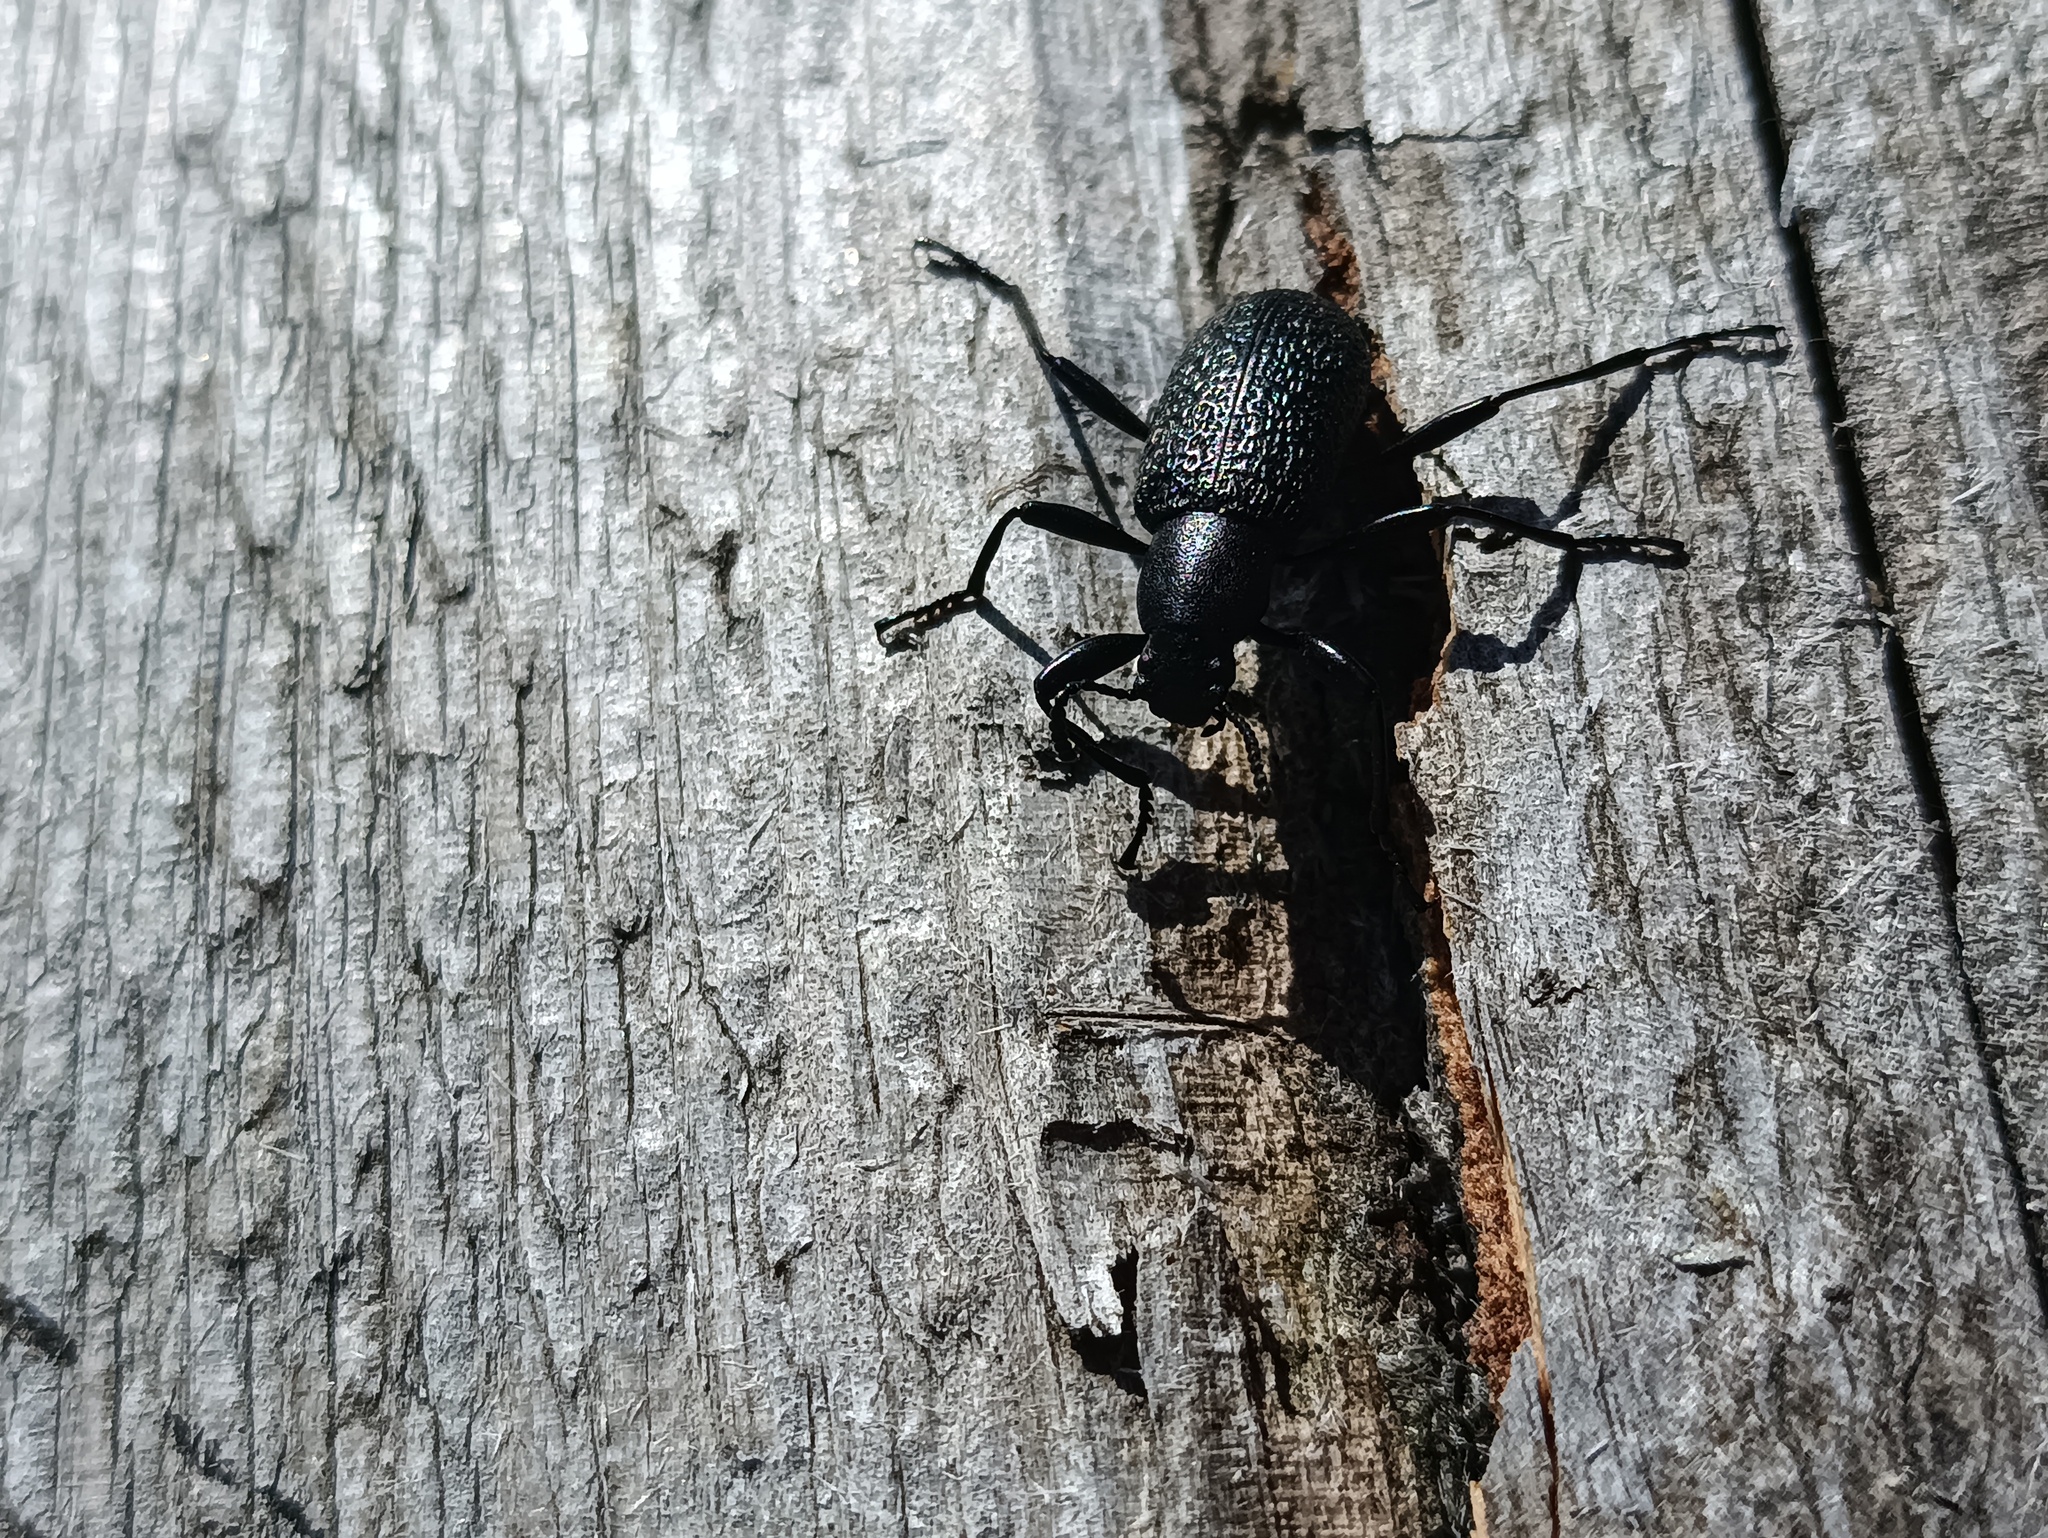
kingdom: Animalia
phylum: Arthropoda
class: Insecta
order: Coleoptera
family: Tenebrionidae
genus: Upis
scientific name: Upis ceramboides
